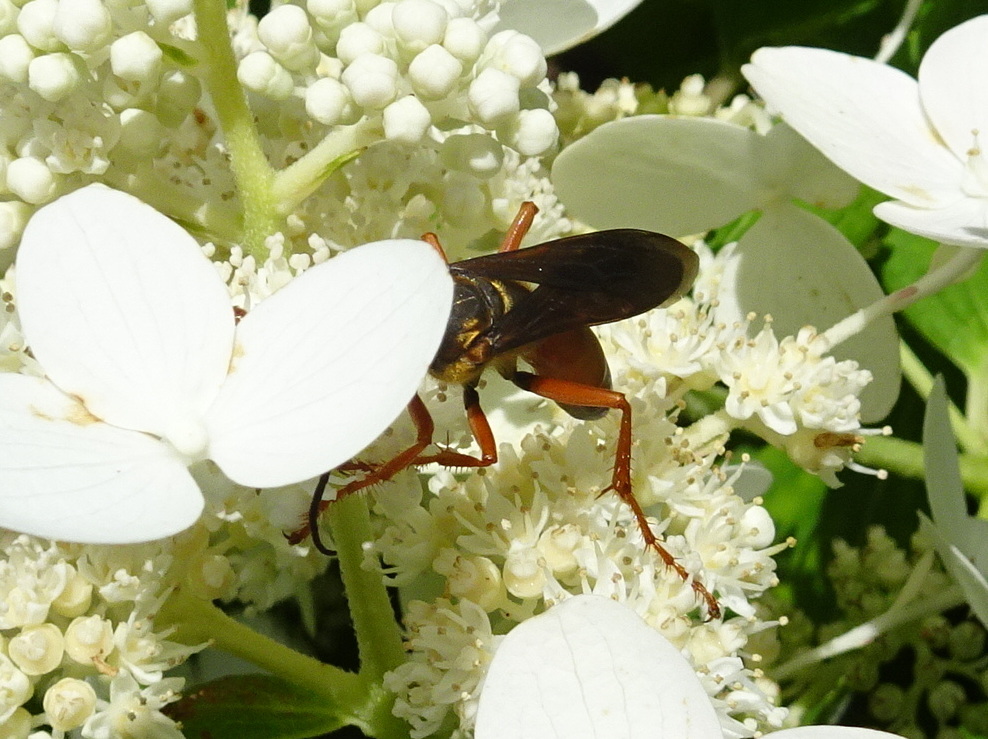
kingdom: Animalia
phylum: Arthropoda
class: Insecta
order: Hymenoptera
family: Sphecidae
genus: Sphex
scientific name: Sphex ichneumoneus
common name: Great golden digger wasp
